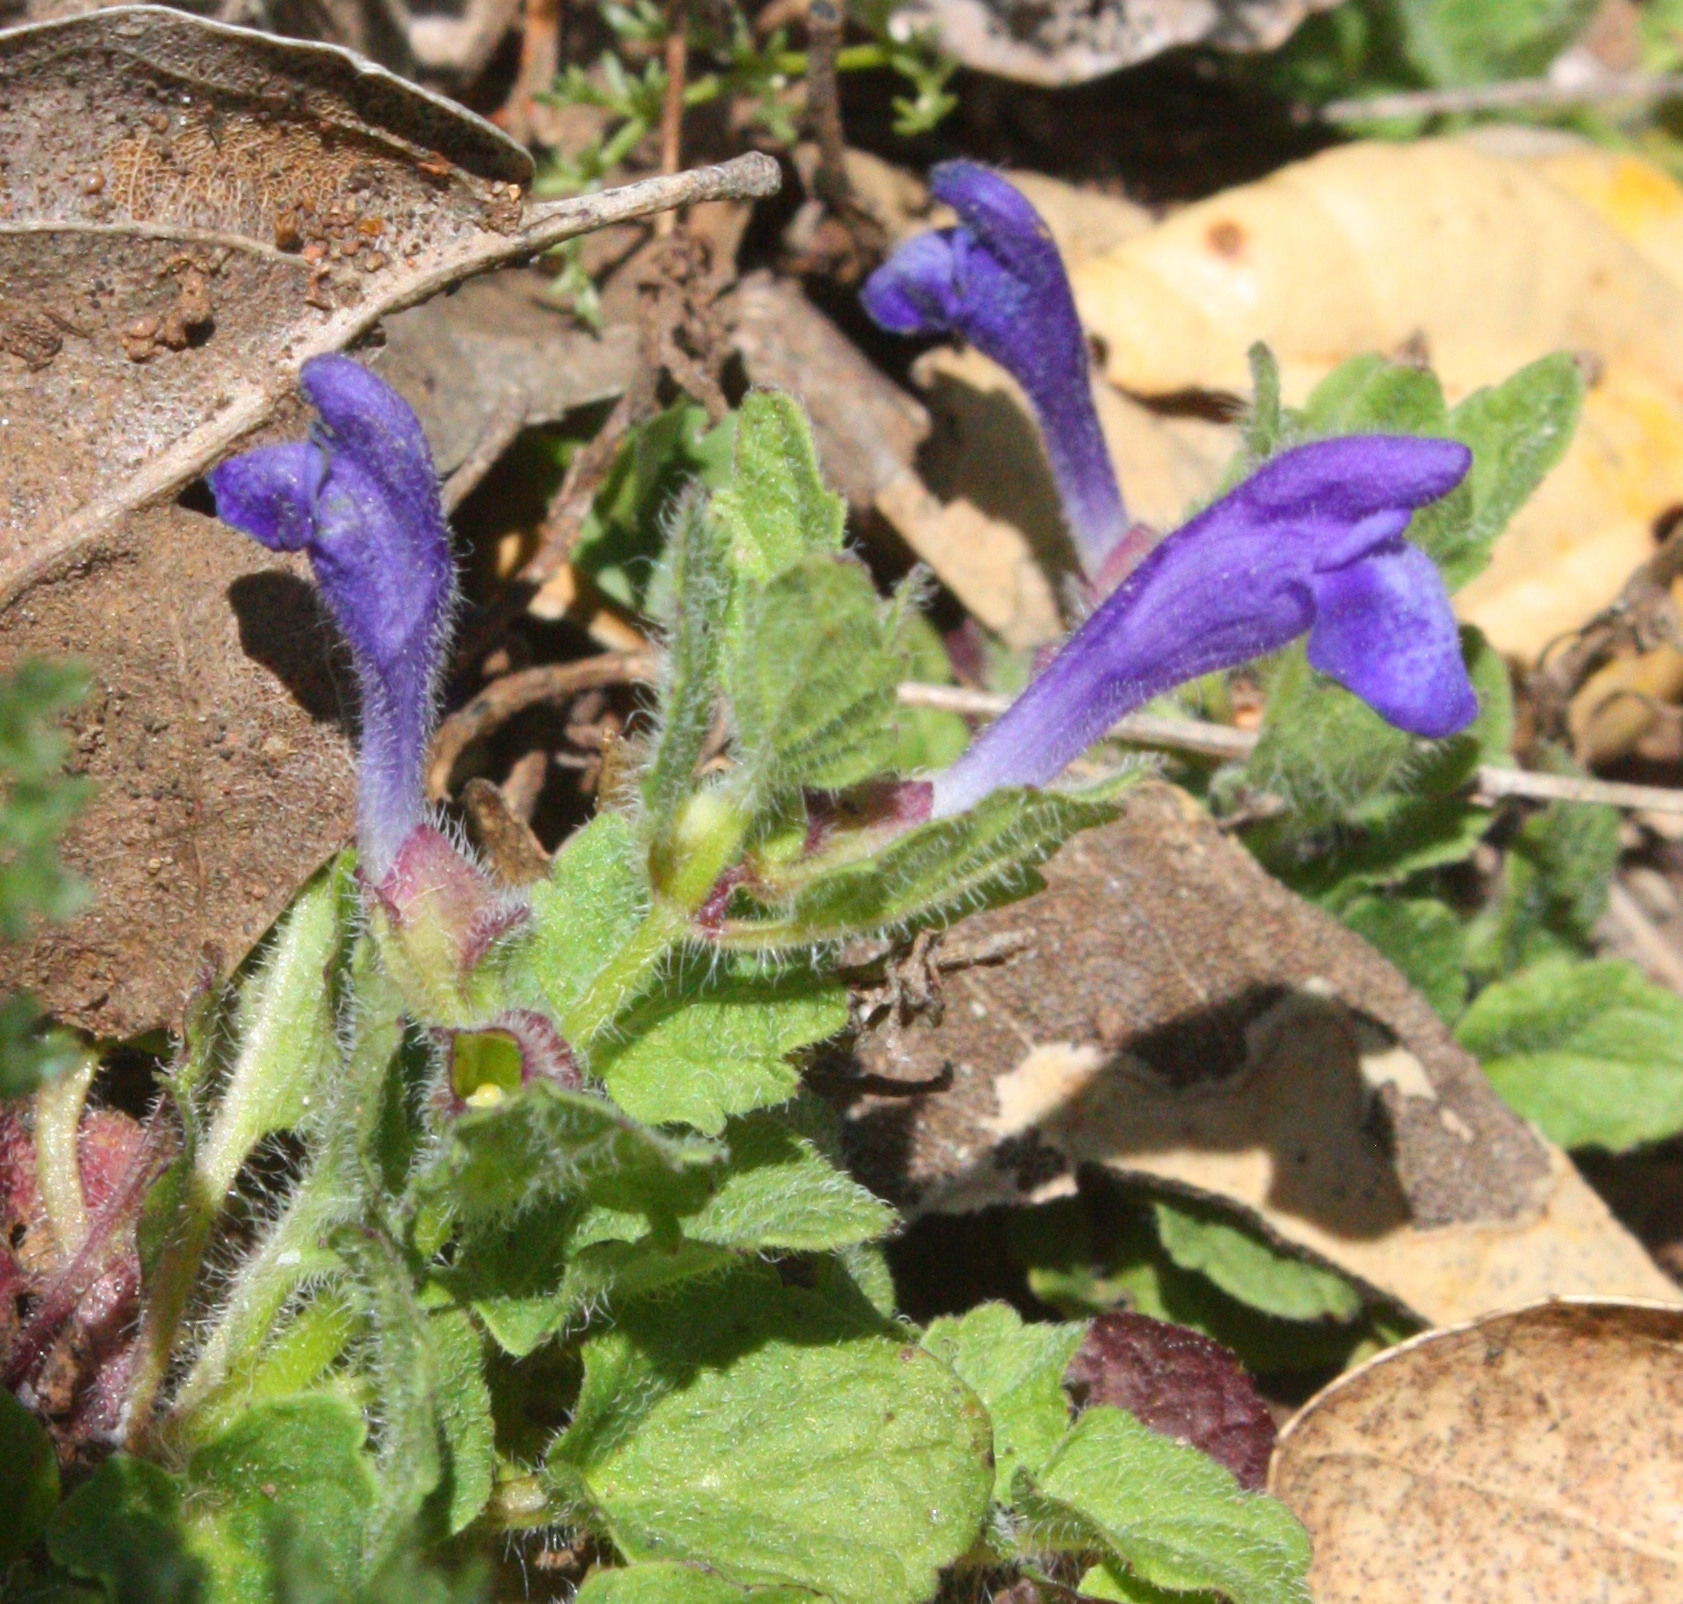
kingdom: Plantae
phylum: Tracheophyta
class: Magnoliopsida
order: Lamiales
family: Lamiaceae
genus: Scutellaria
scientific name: Scutellaria tuberosa
